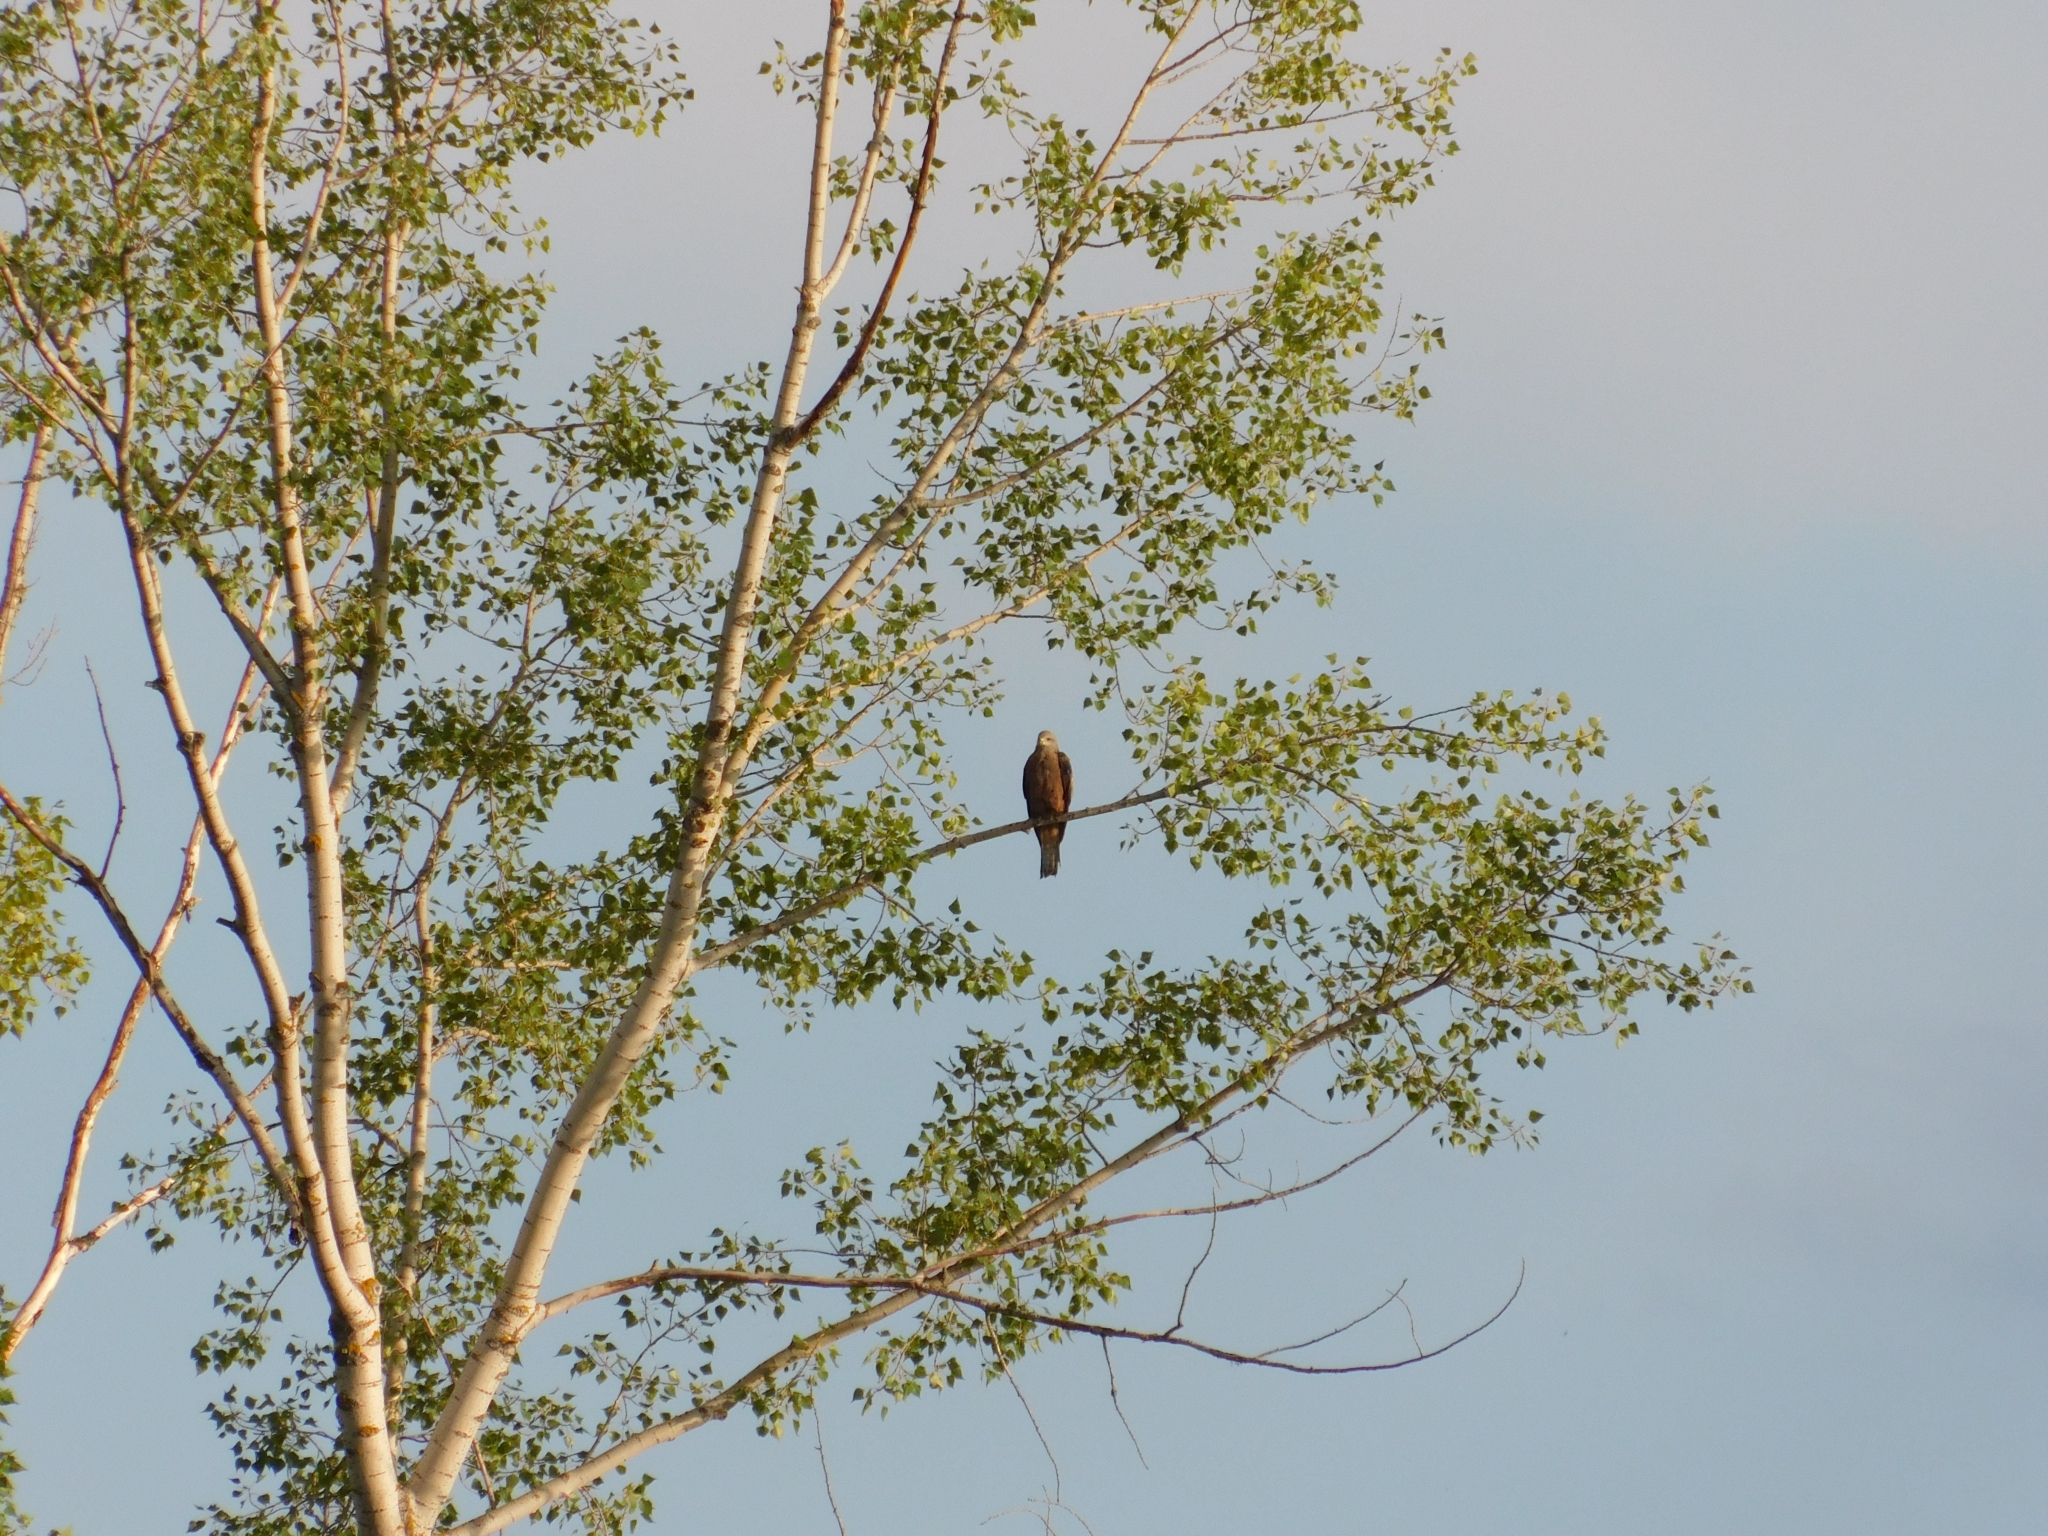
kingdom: Animalia
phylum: Chordata
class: Aves
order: Accipitriformes
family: Accipitridae
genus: Milvus
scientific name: Milvus migrans
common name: Black kite
